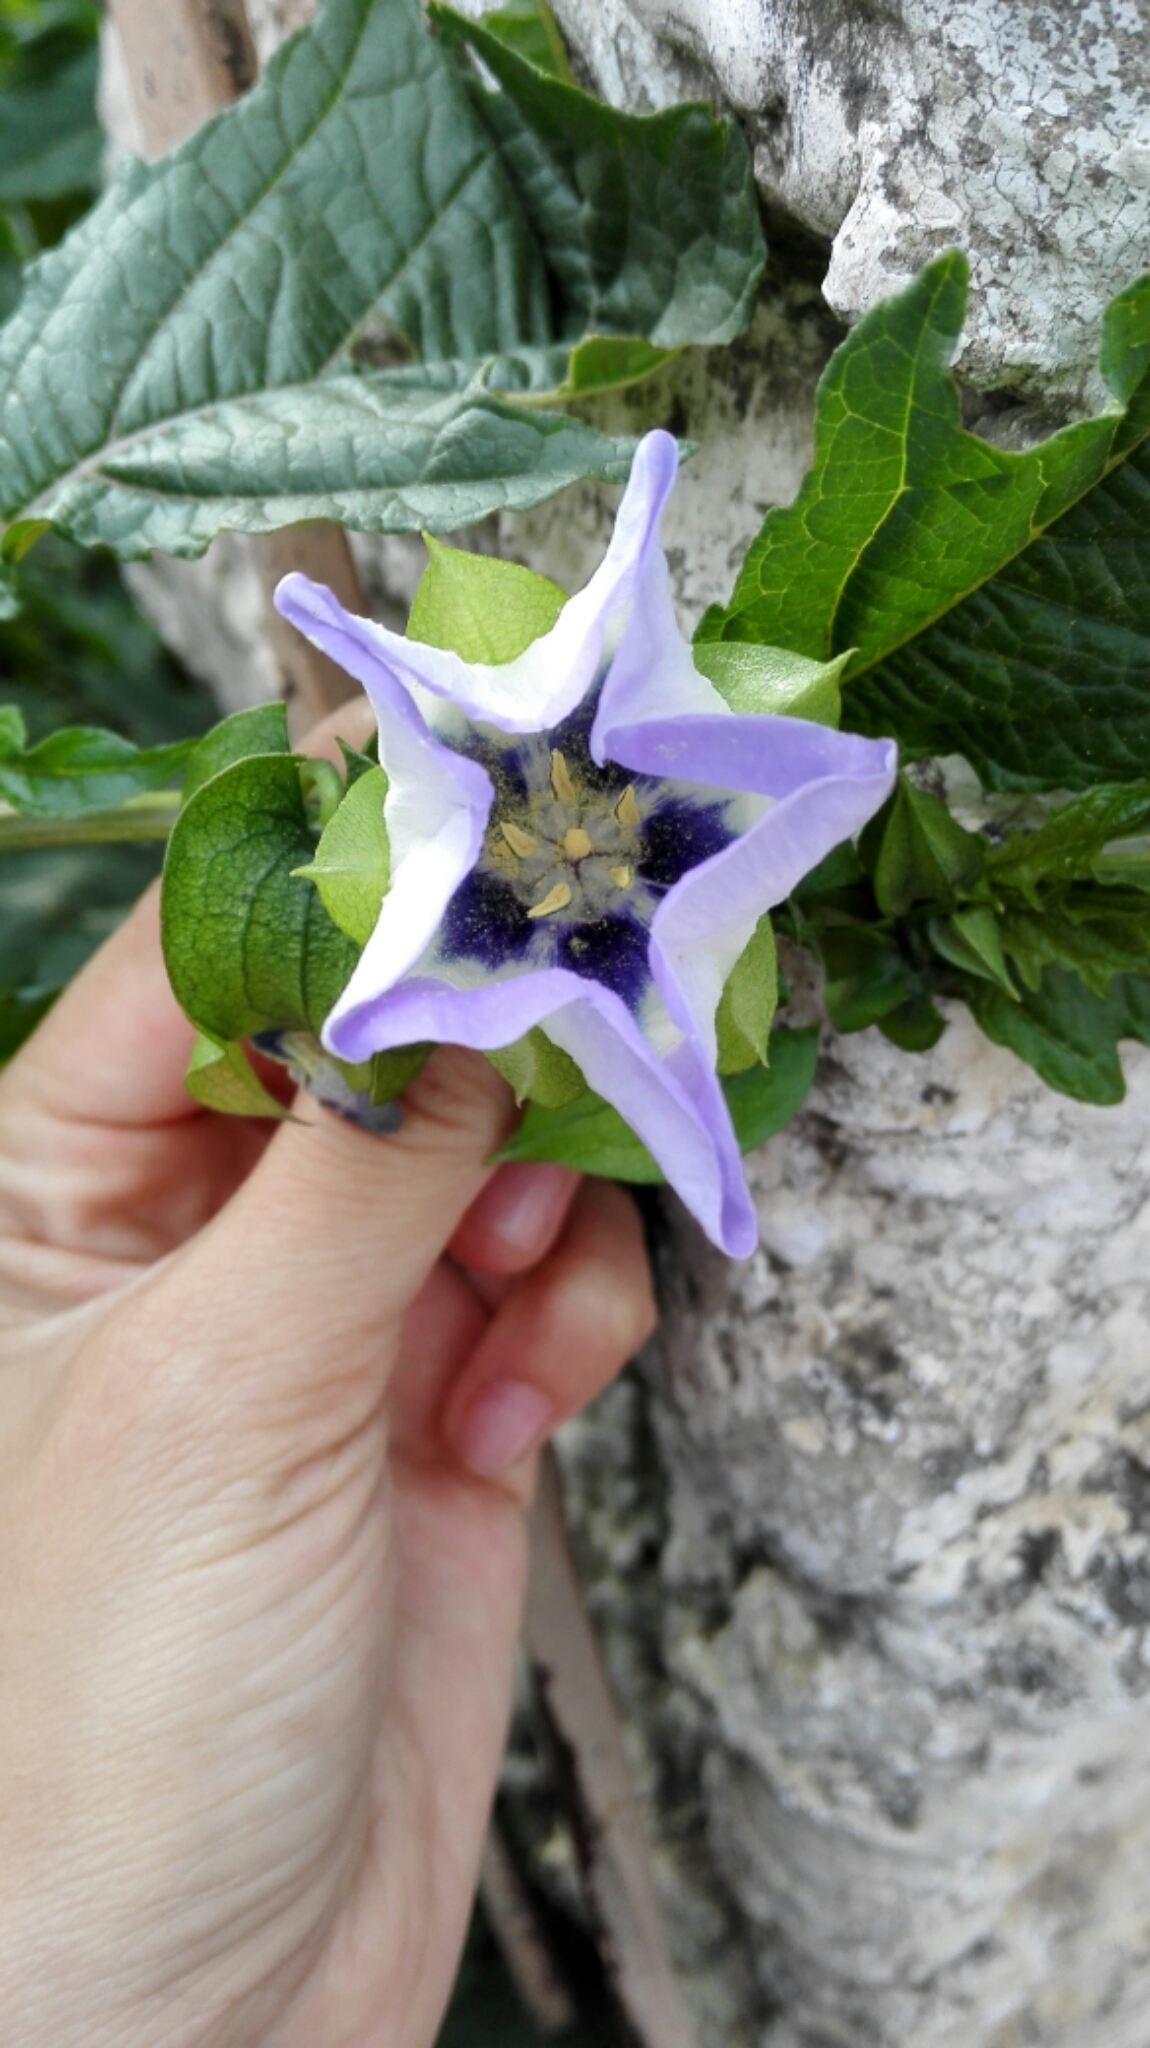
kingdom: Plantae
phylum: Tracheophyta
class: Magnoliopsida
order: Solanales
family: Solanaceae
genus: Nicandra
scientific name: Nicandra physalodes
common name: Apple-of-peru
